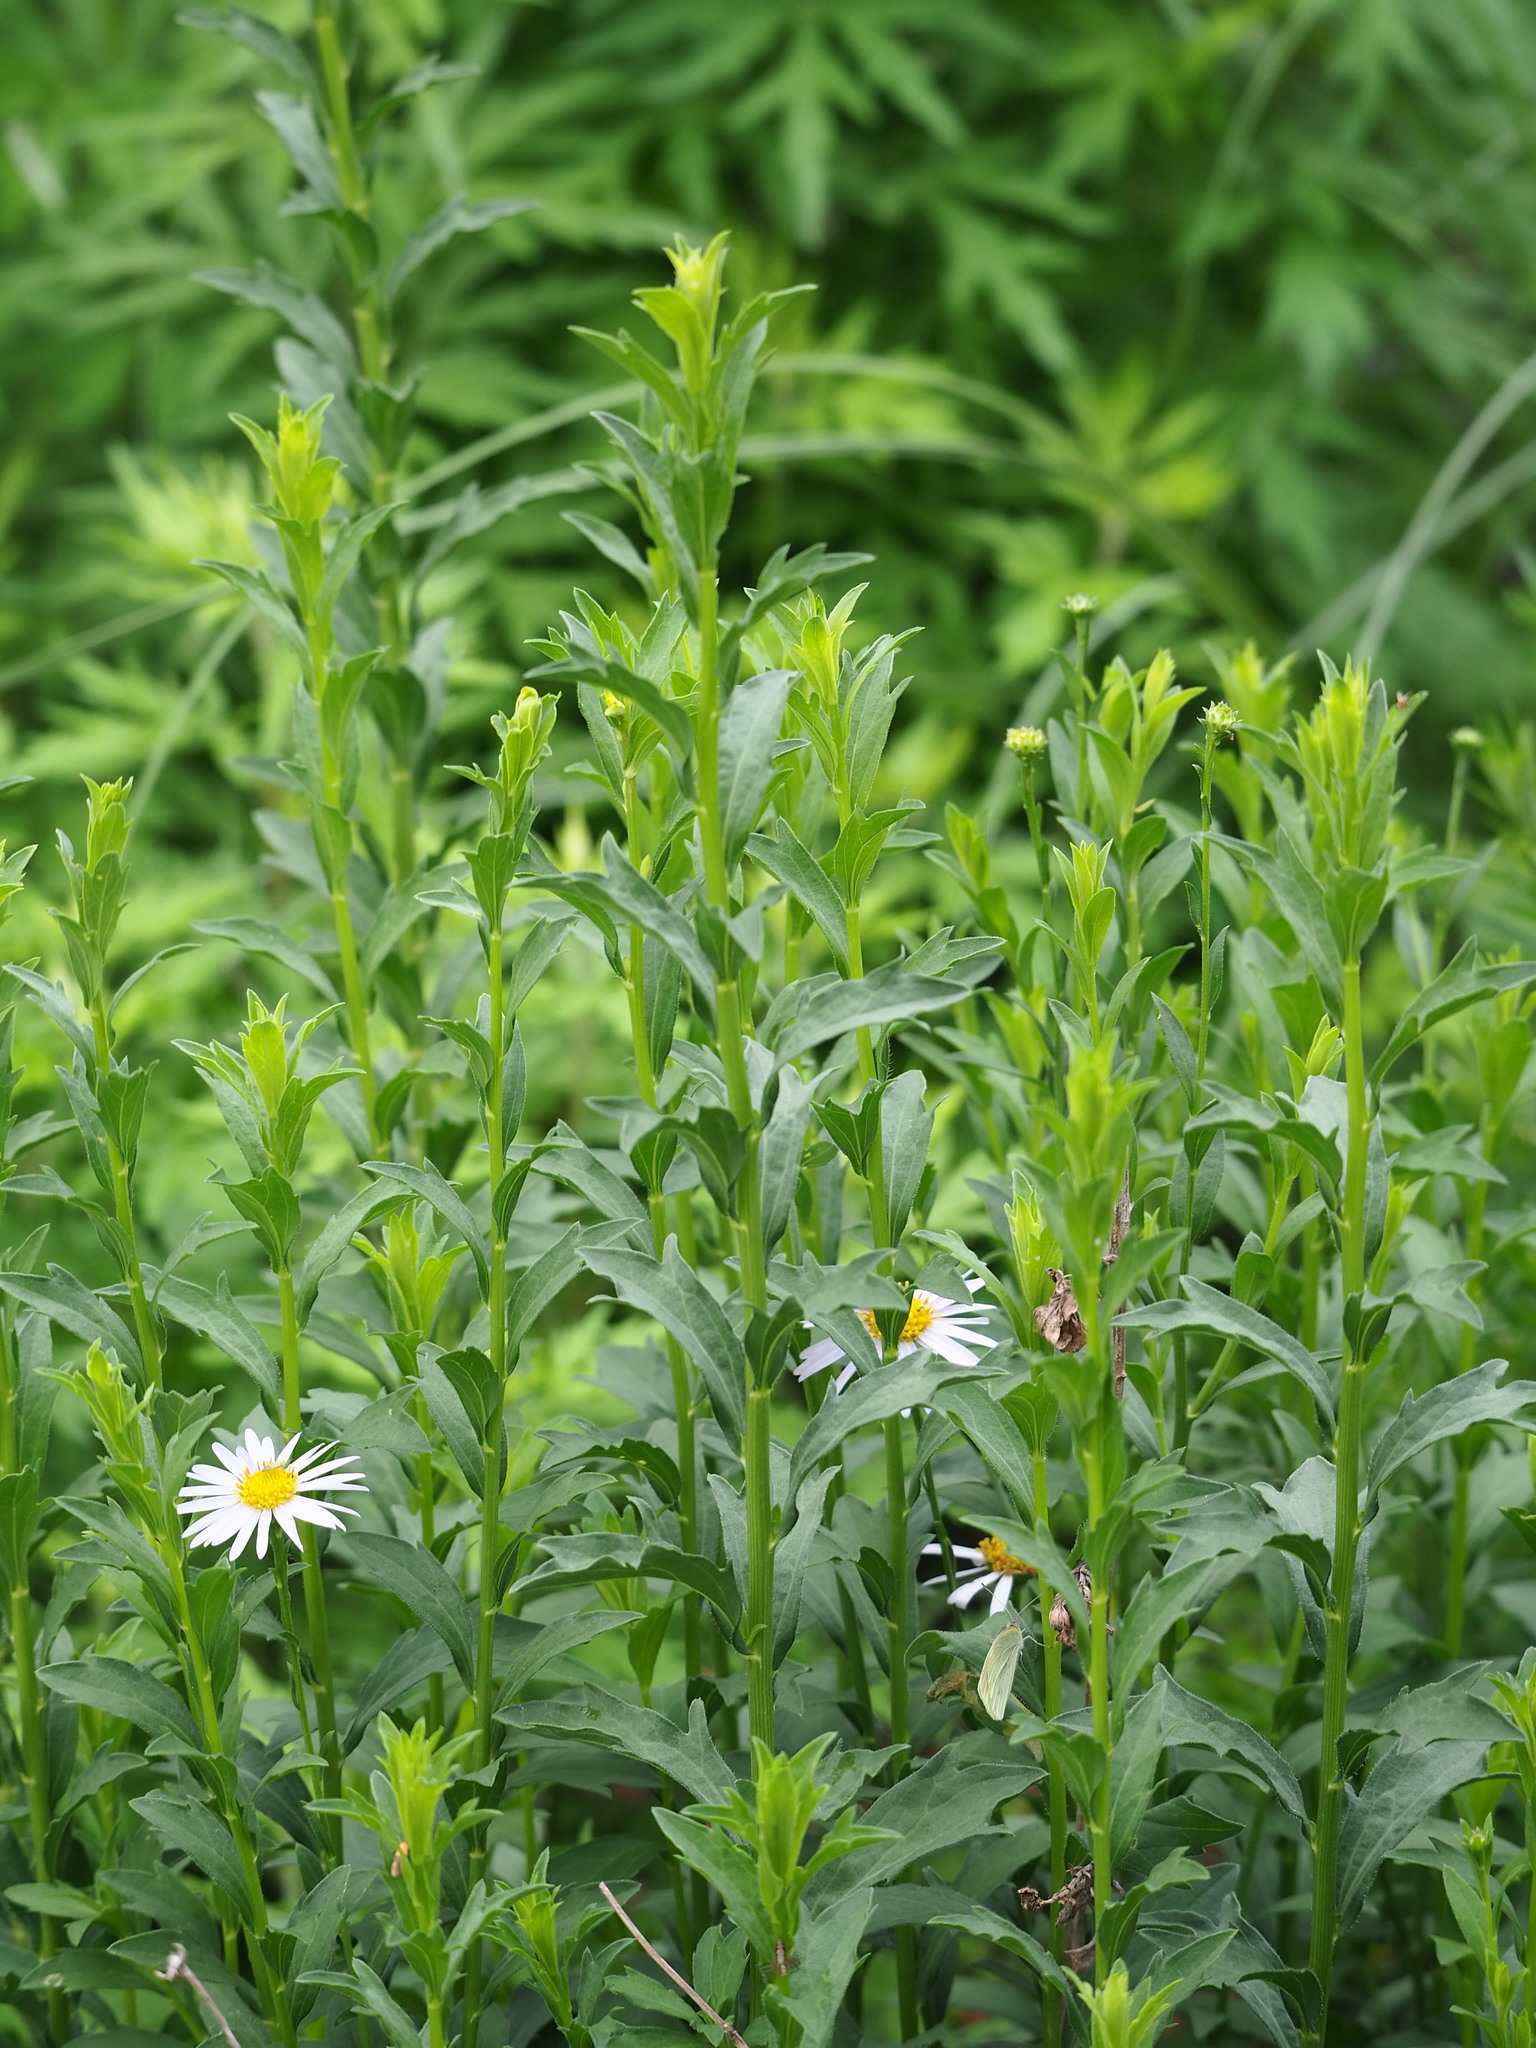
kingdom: Plantae
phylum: Tracheophyta
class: Magnoliopsida
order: Asterales
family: Asteraceae
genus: Aster
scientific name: Aster shimadae
